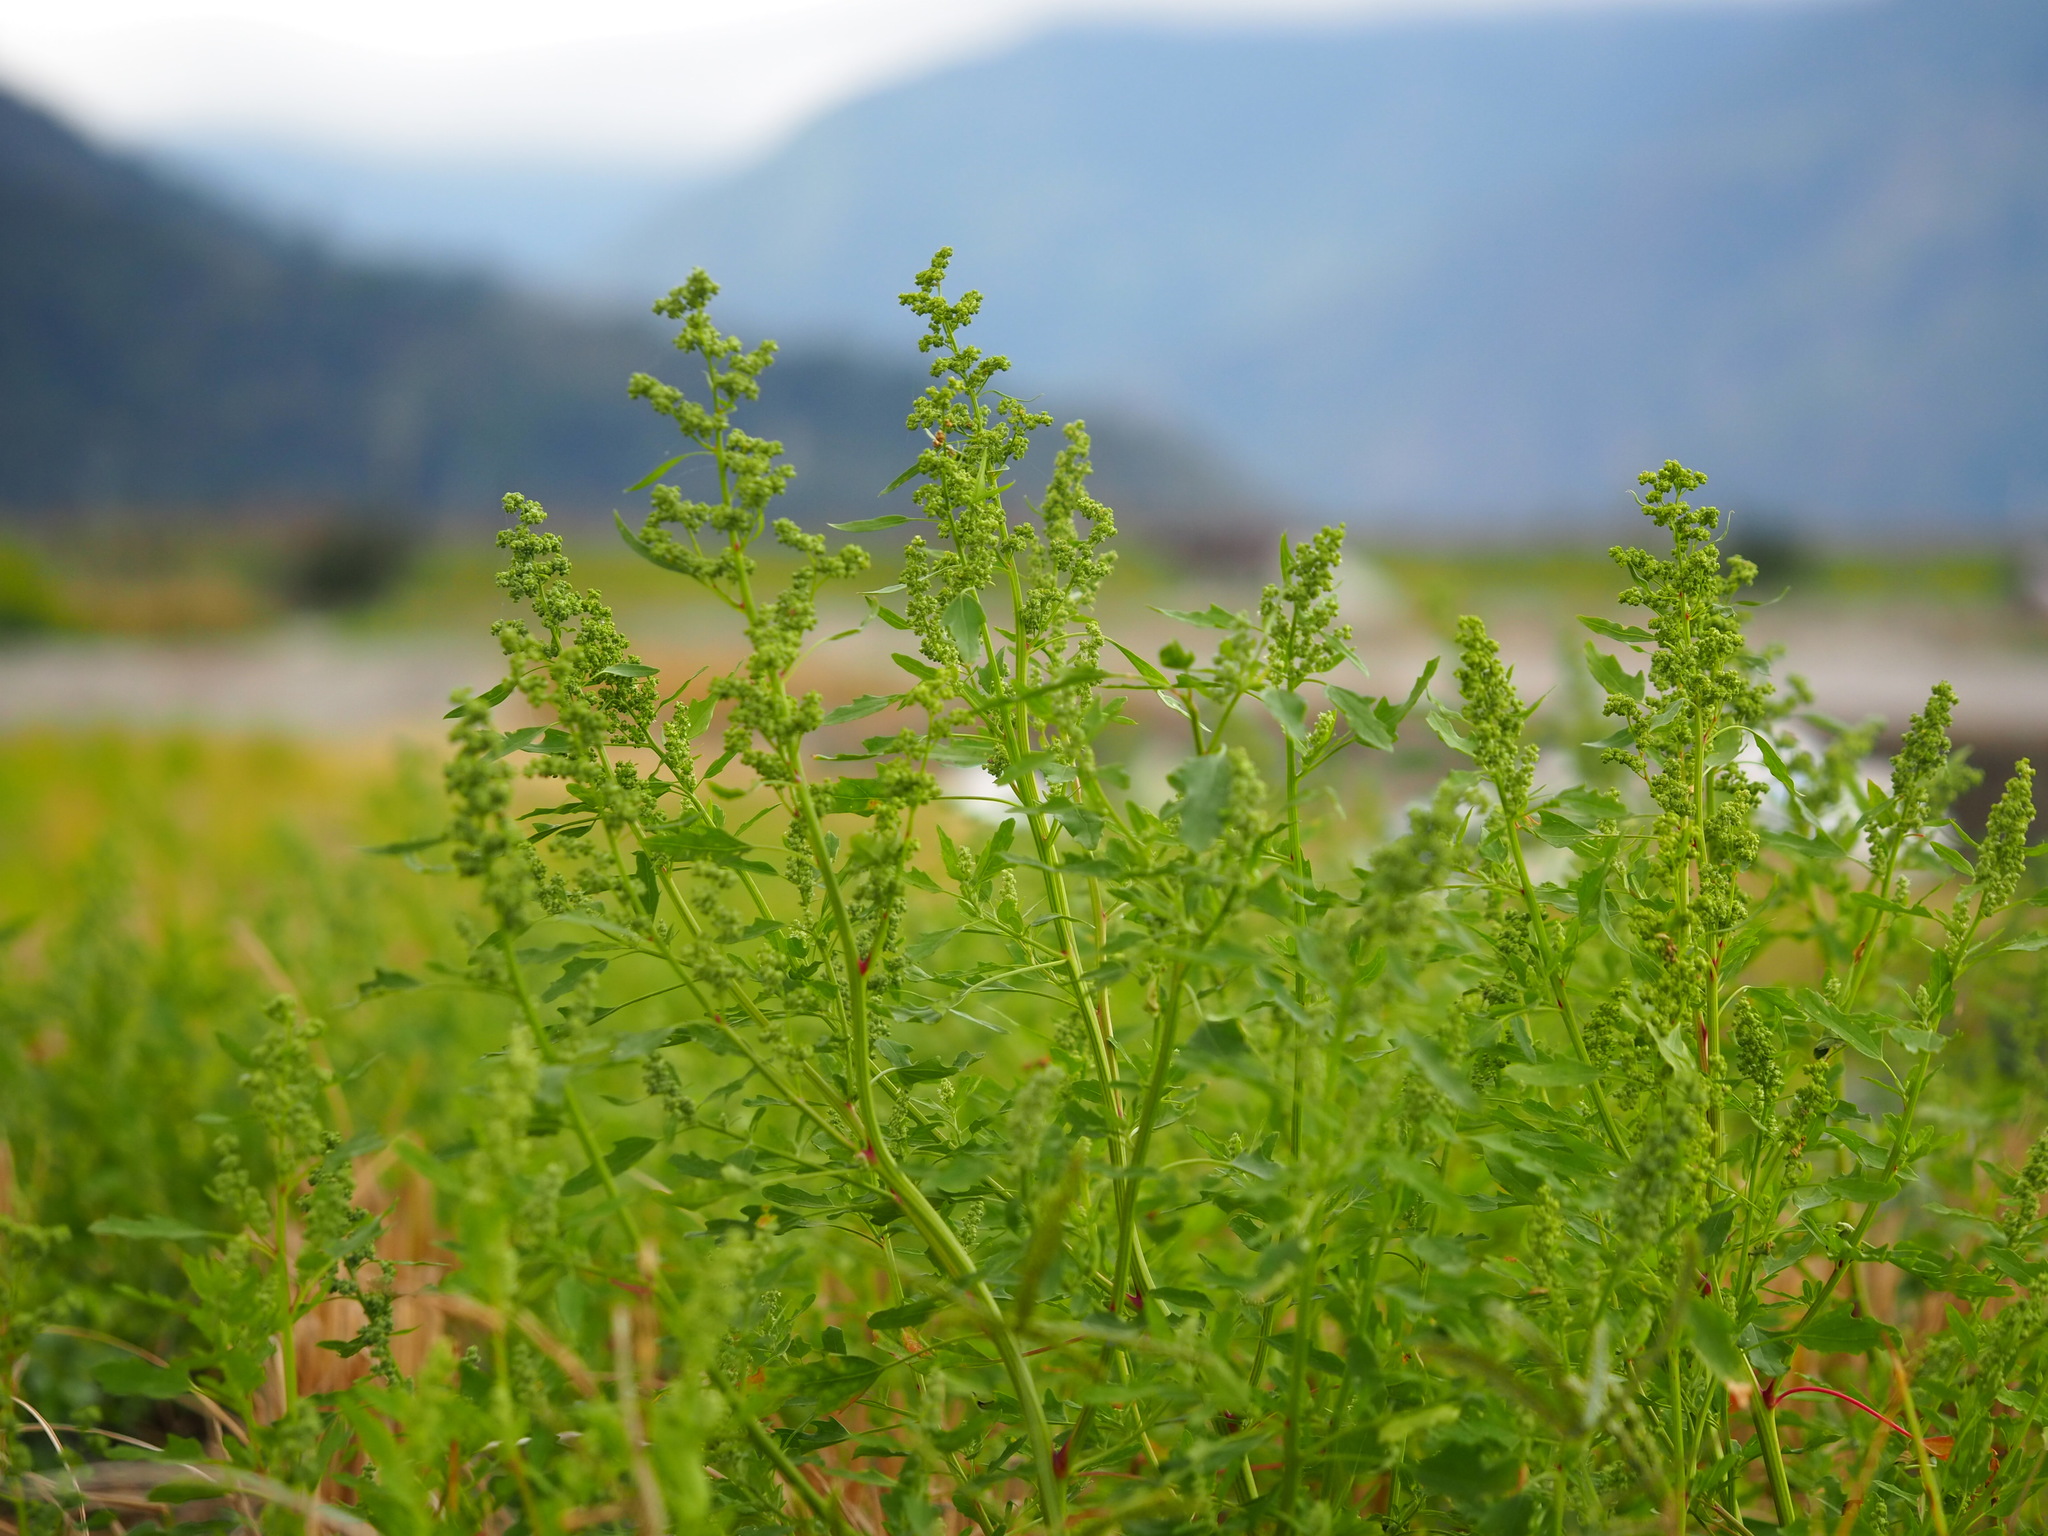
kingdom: Plantae
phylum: Tracheophyta
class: Magnoliopsida
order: Caryophyllales
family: Amaranthaceae
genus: Chenopodium
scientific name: Chenopodium ficifolium
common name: Fig-leaved goosefoot
